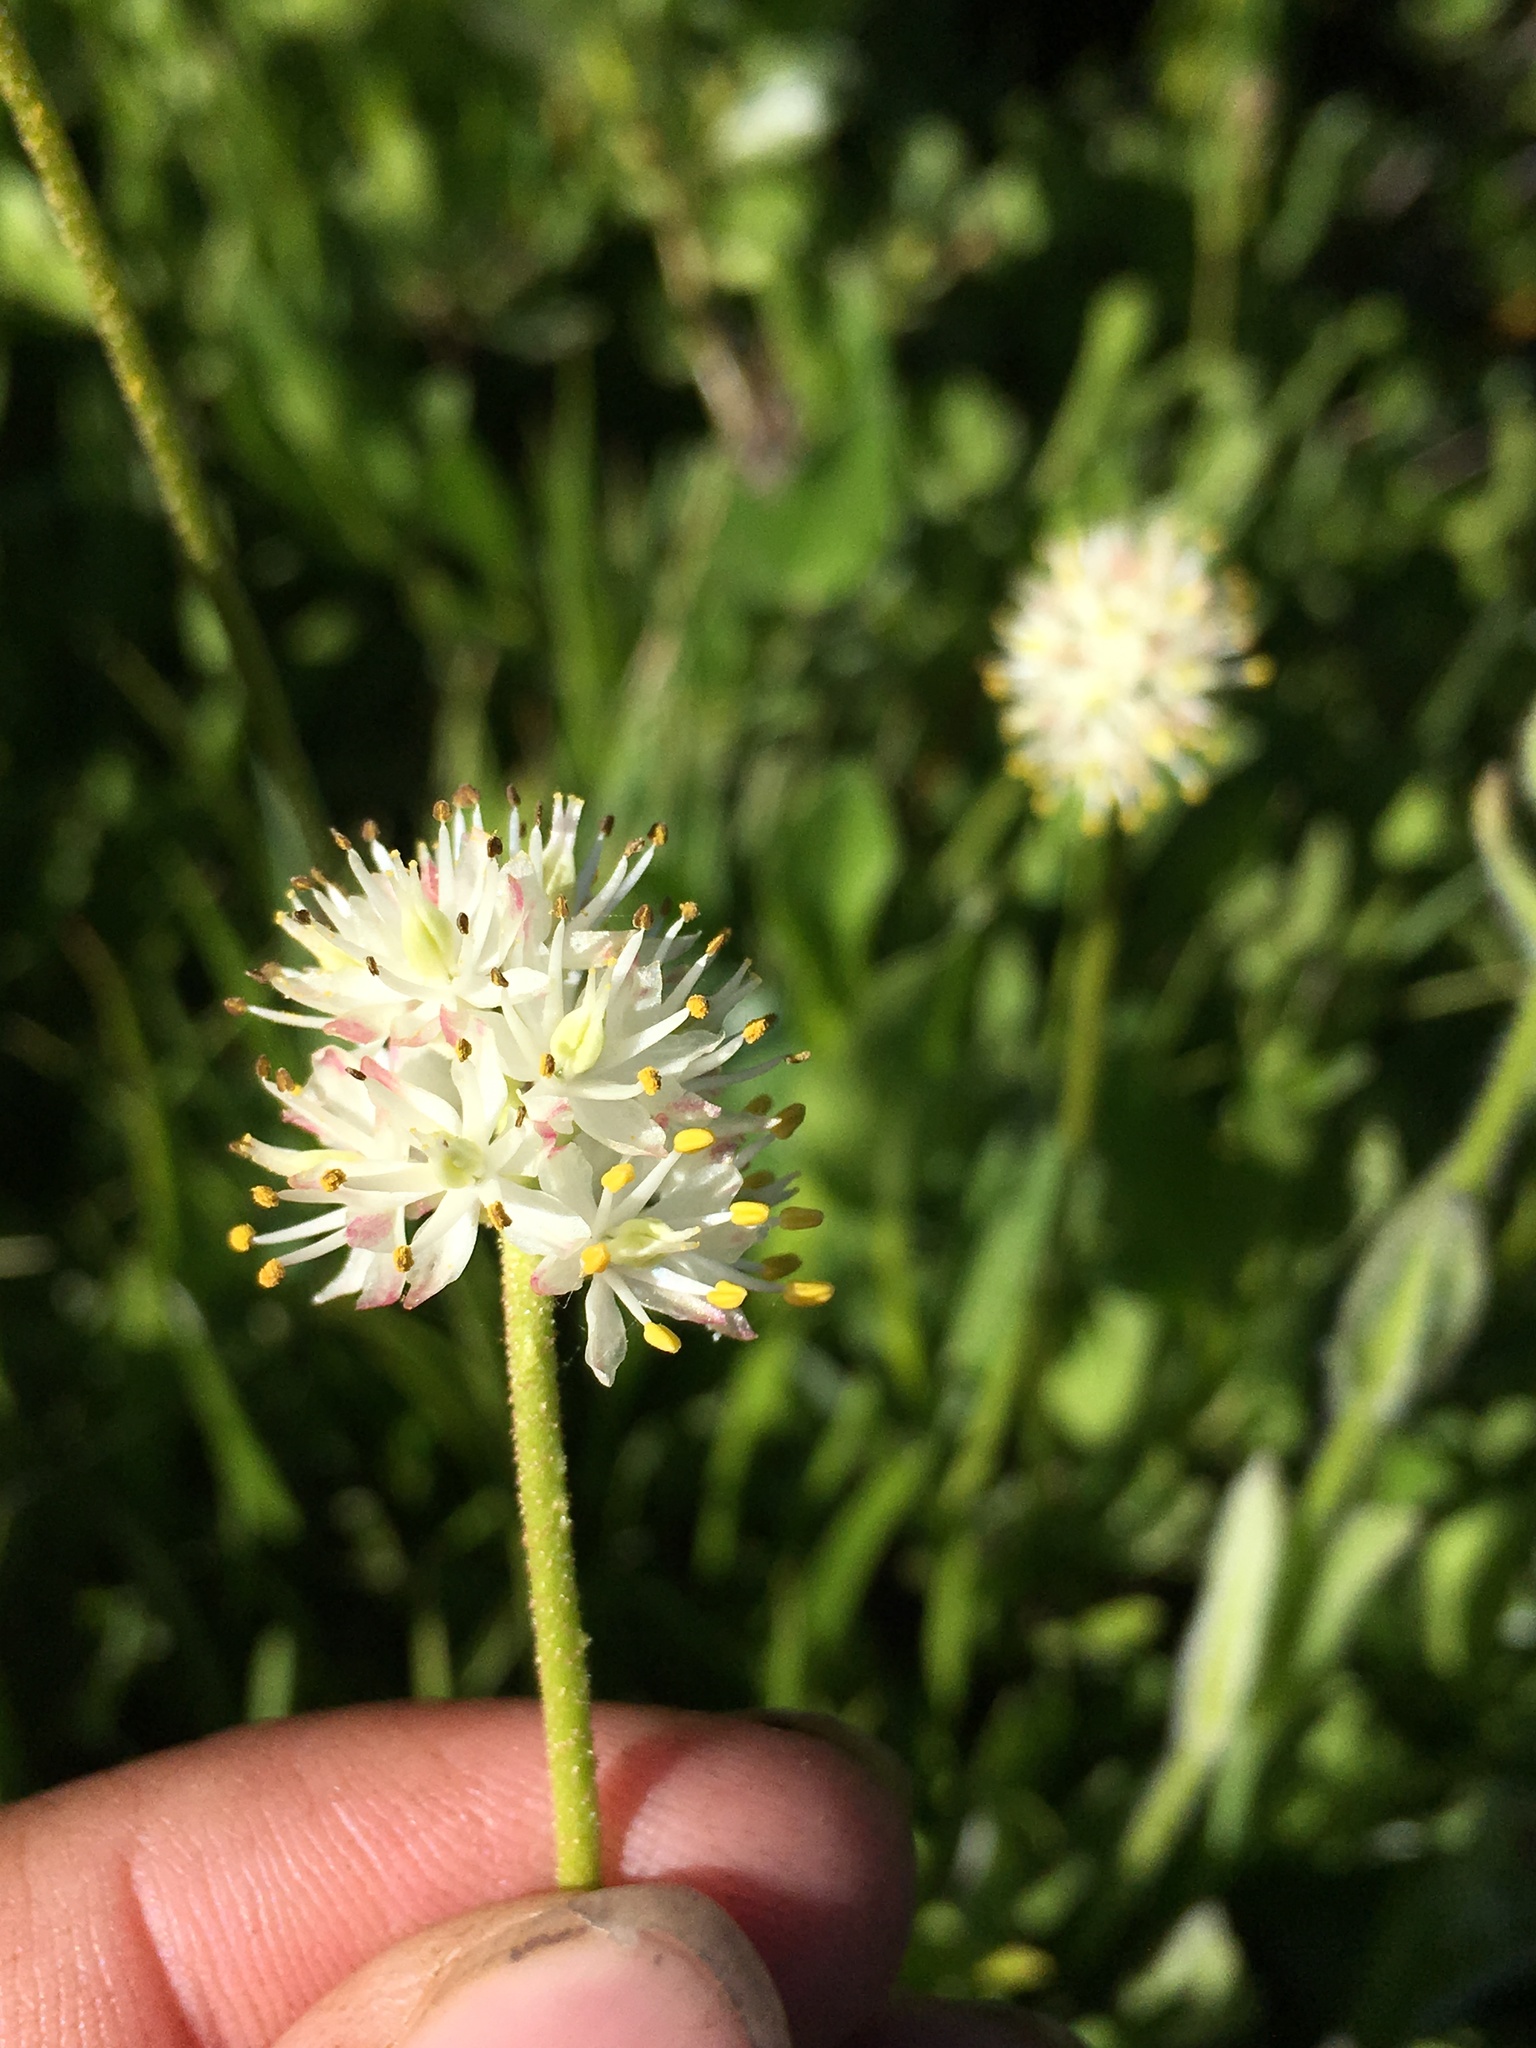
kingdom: Plantae
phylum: Tracheophyta
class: Liliopsida
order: Alismatales
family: Tofieldiaceae
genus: Triantha
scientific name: Triantha occidentalis
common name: Western false asphodel
